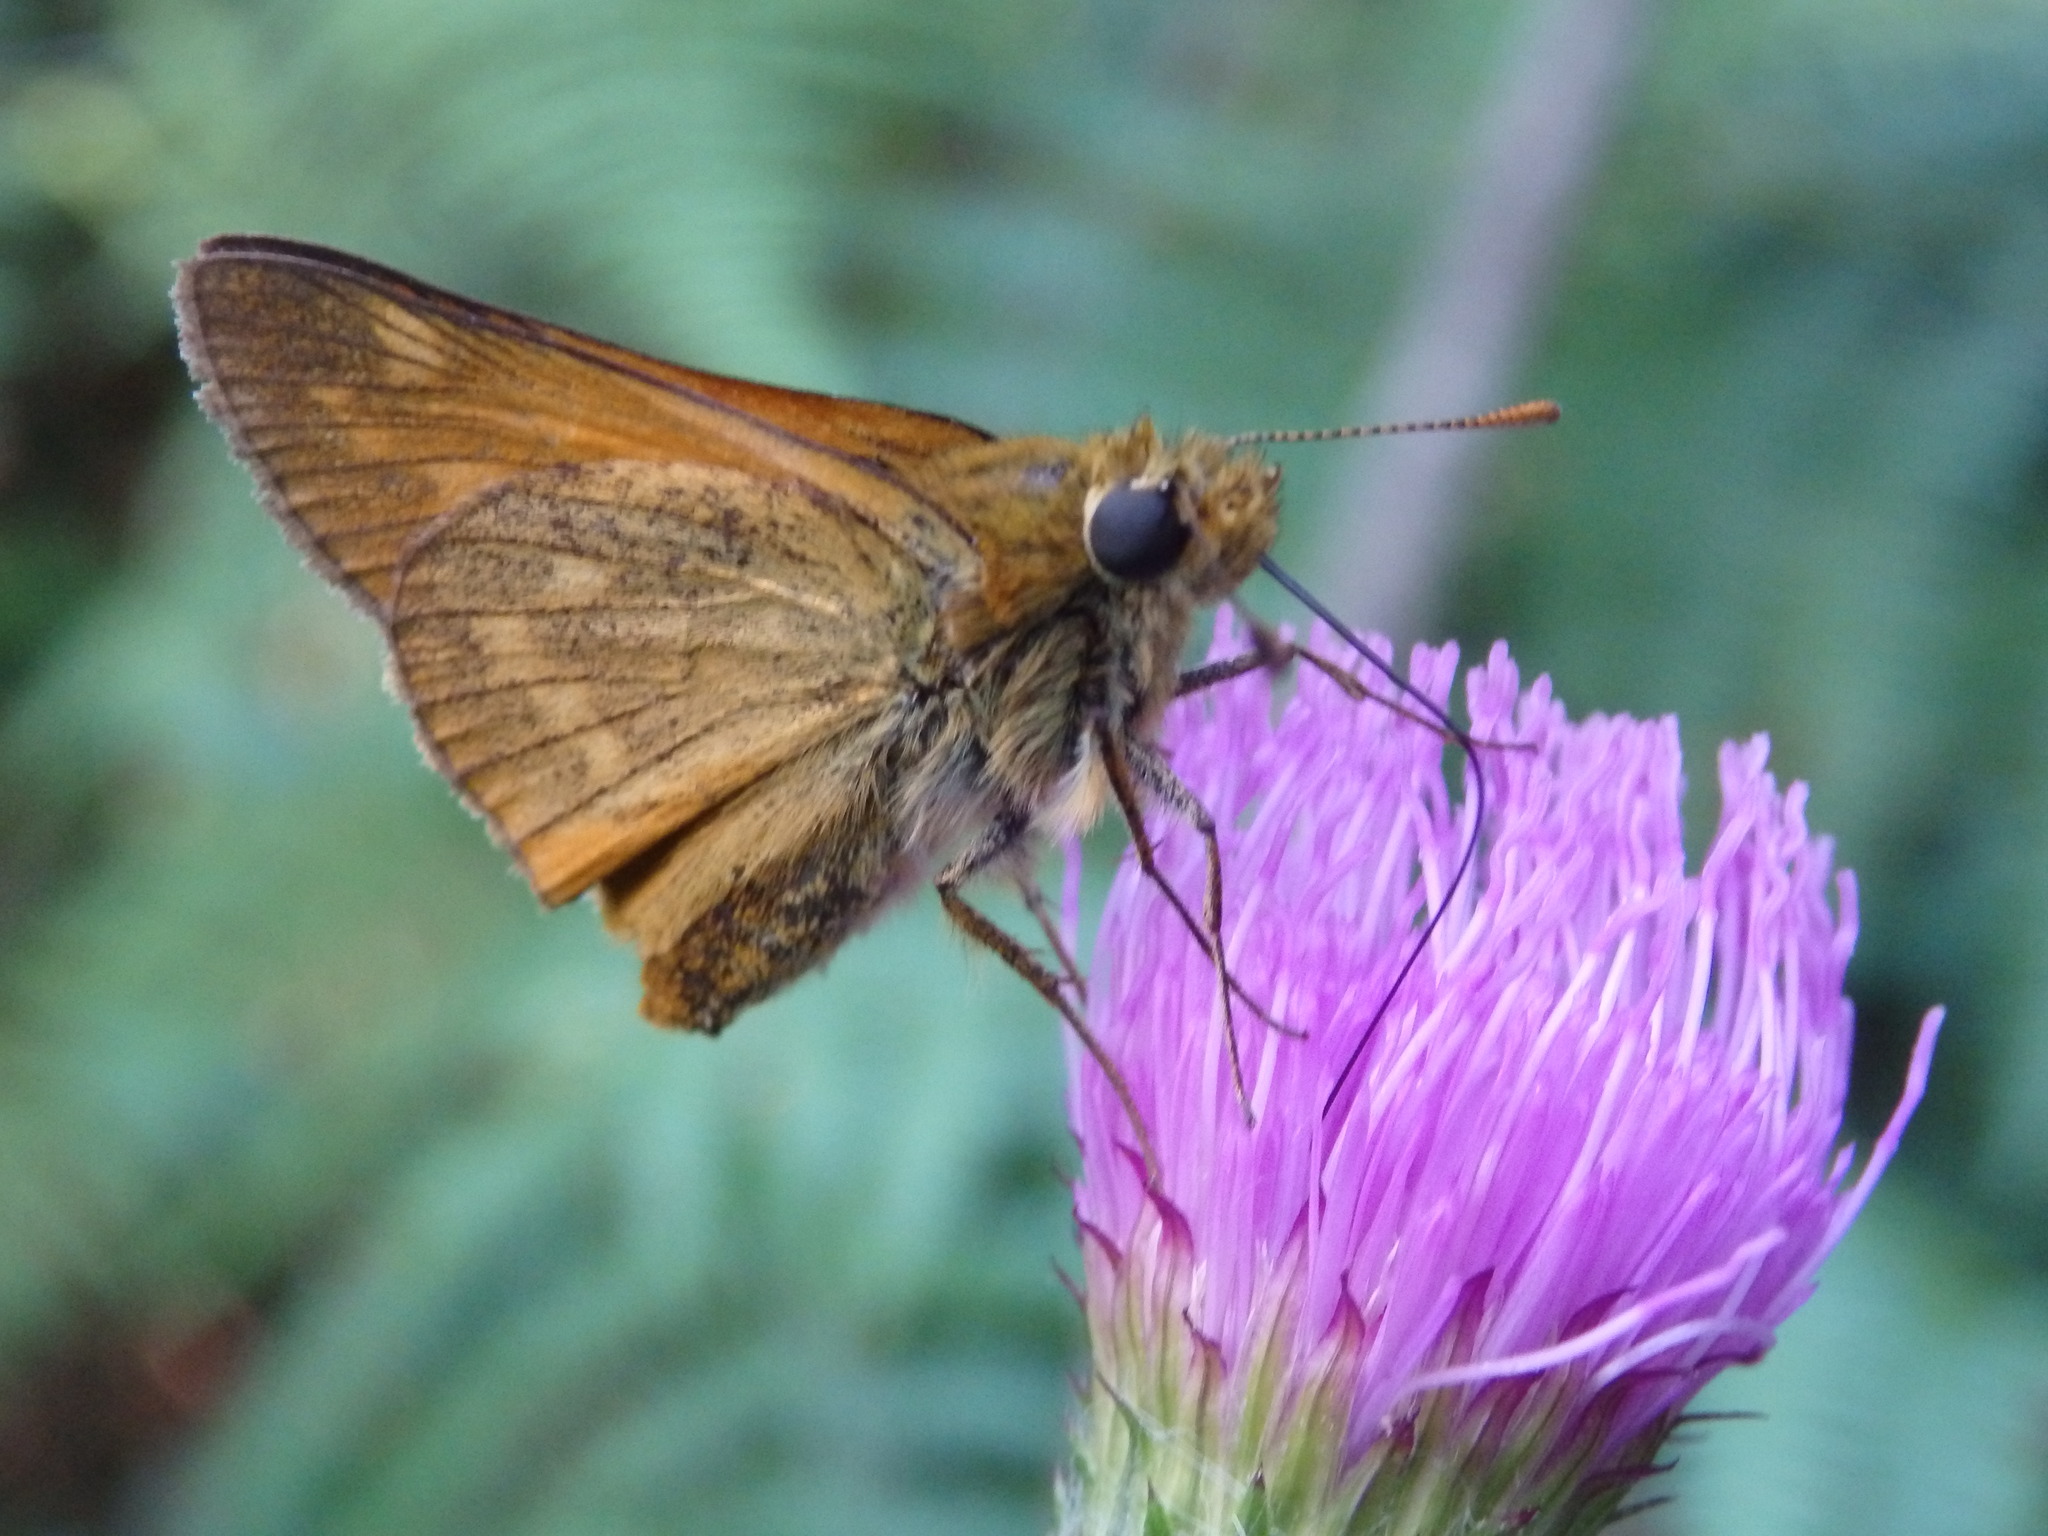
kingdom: Animalia
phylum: Arthropoda
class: Insecta
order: Lepidoptera
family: Hesperiidae
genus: Ochlodes
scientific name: Ochlodes venata
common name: Large skipper
